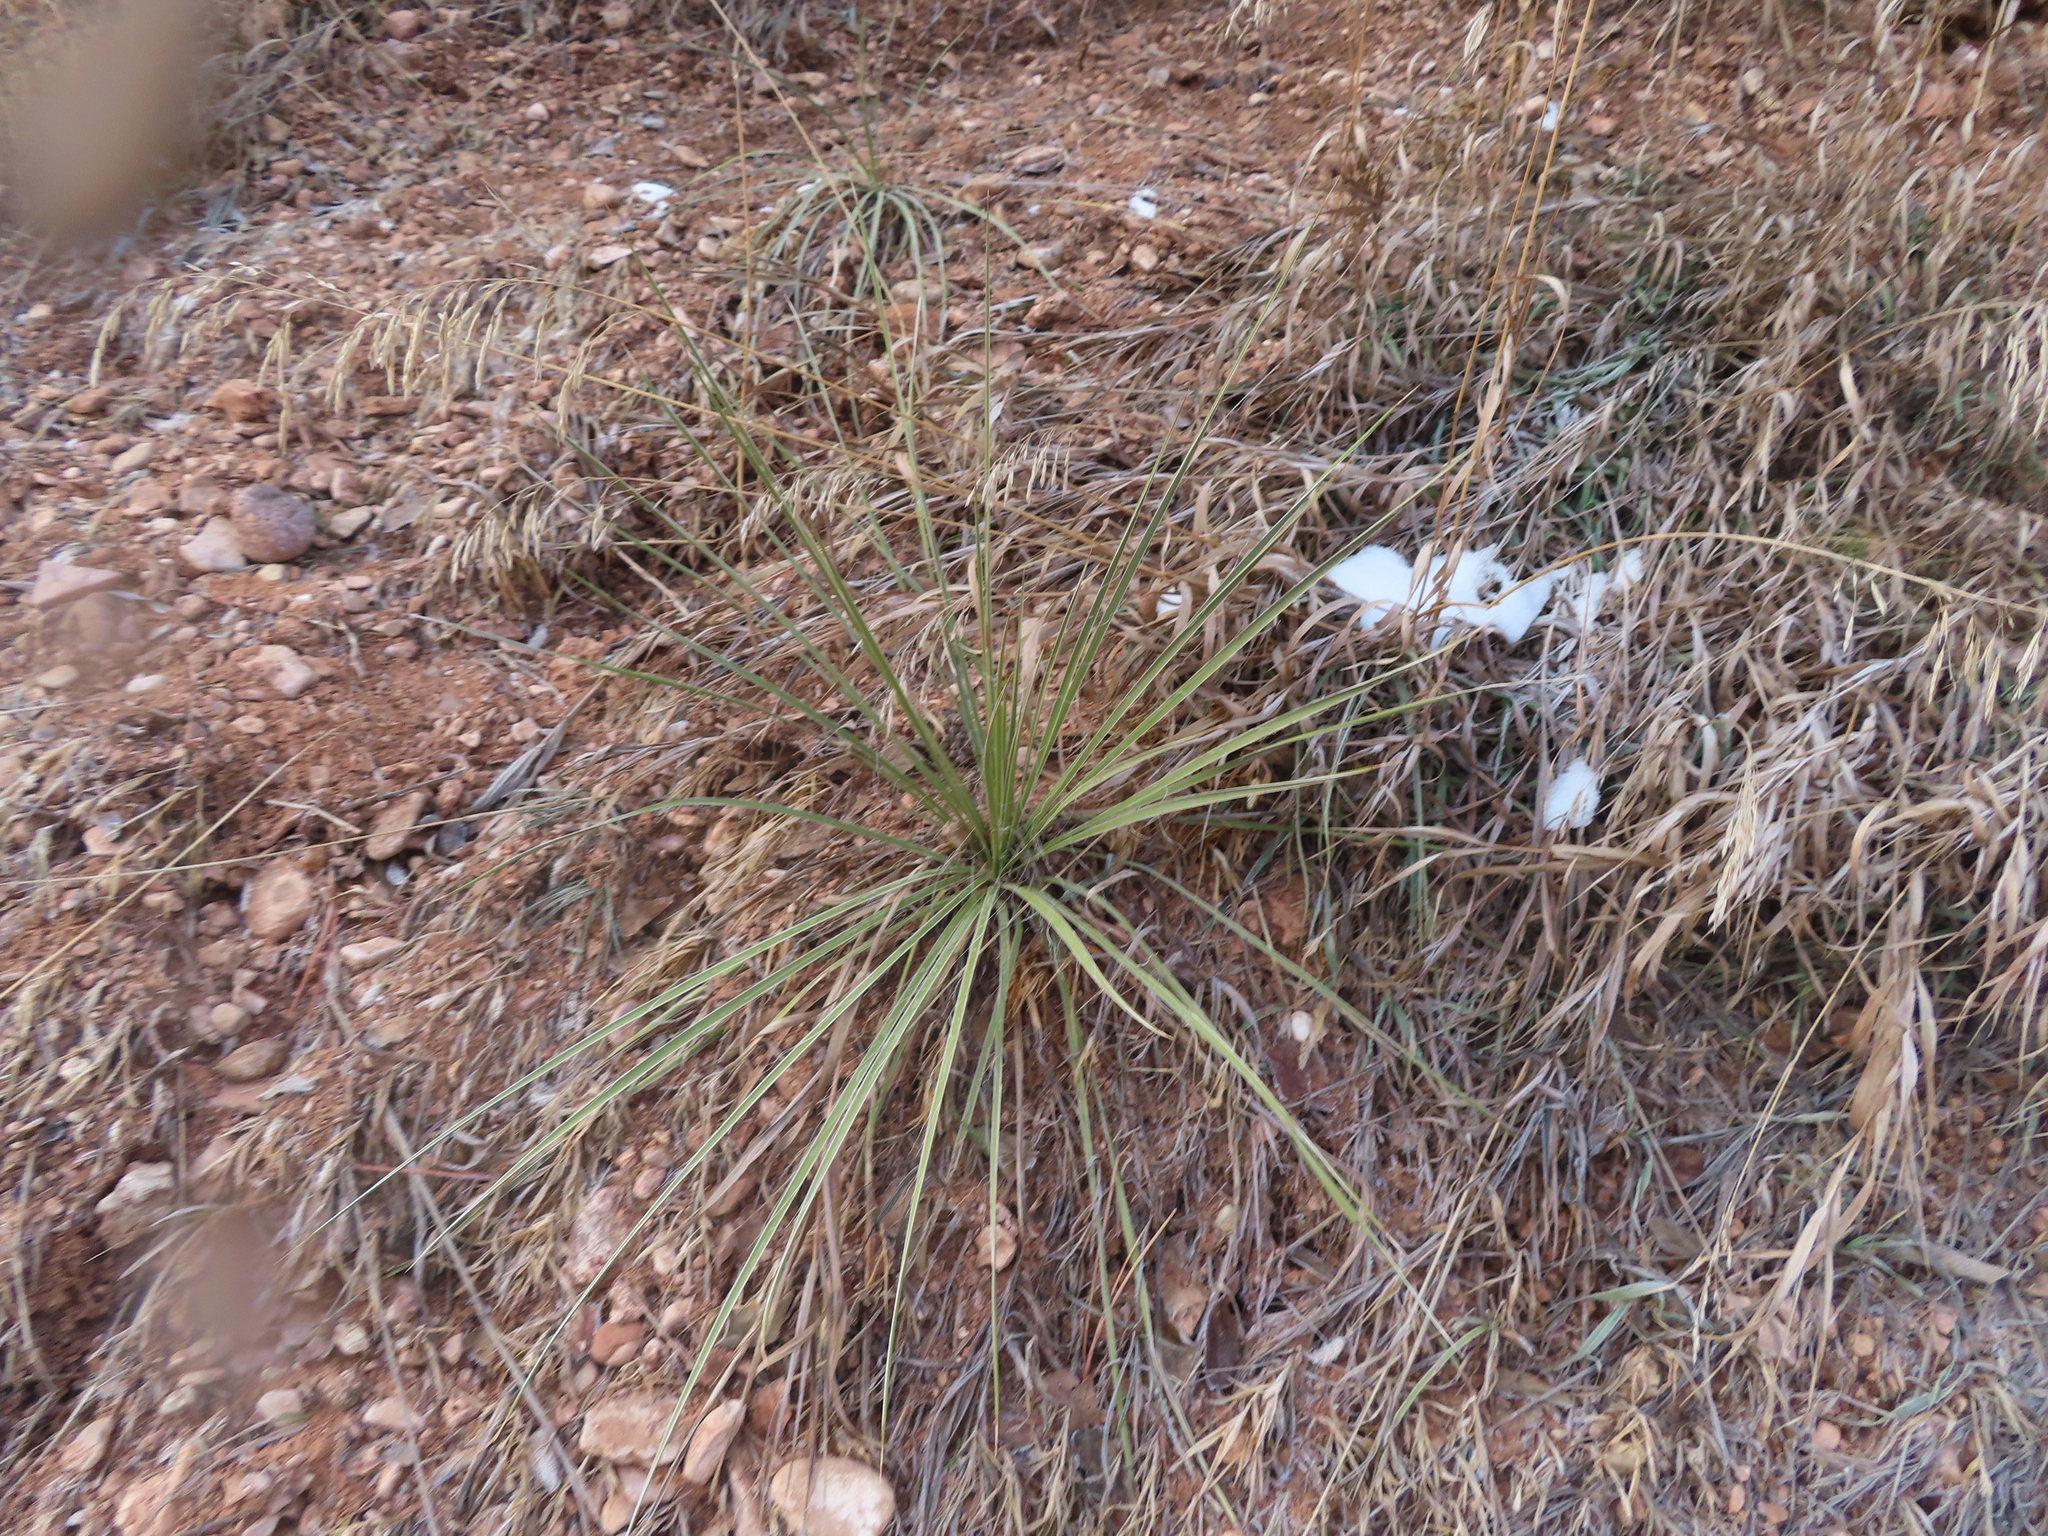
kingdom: Plantae
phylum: Tracheophyta
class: Liliopsida
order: Asparagales
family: Asparagaceae
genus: Yucca
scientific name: Yucca glauca
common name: Great plains yucca
